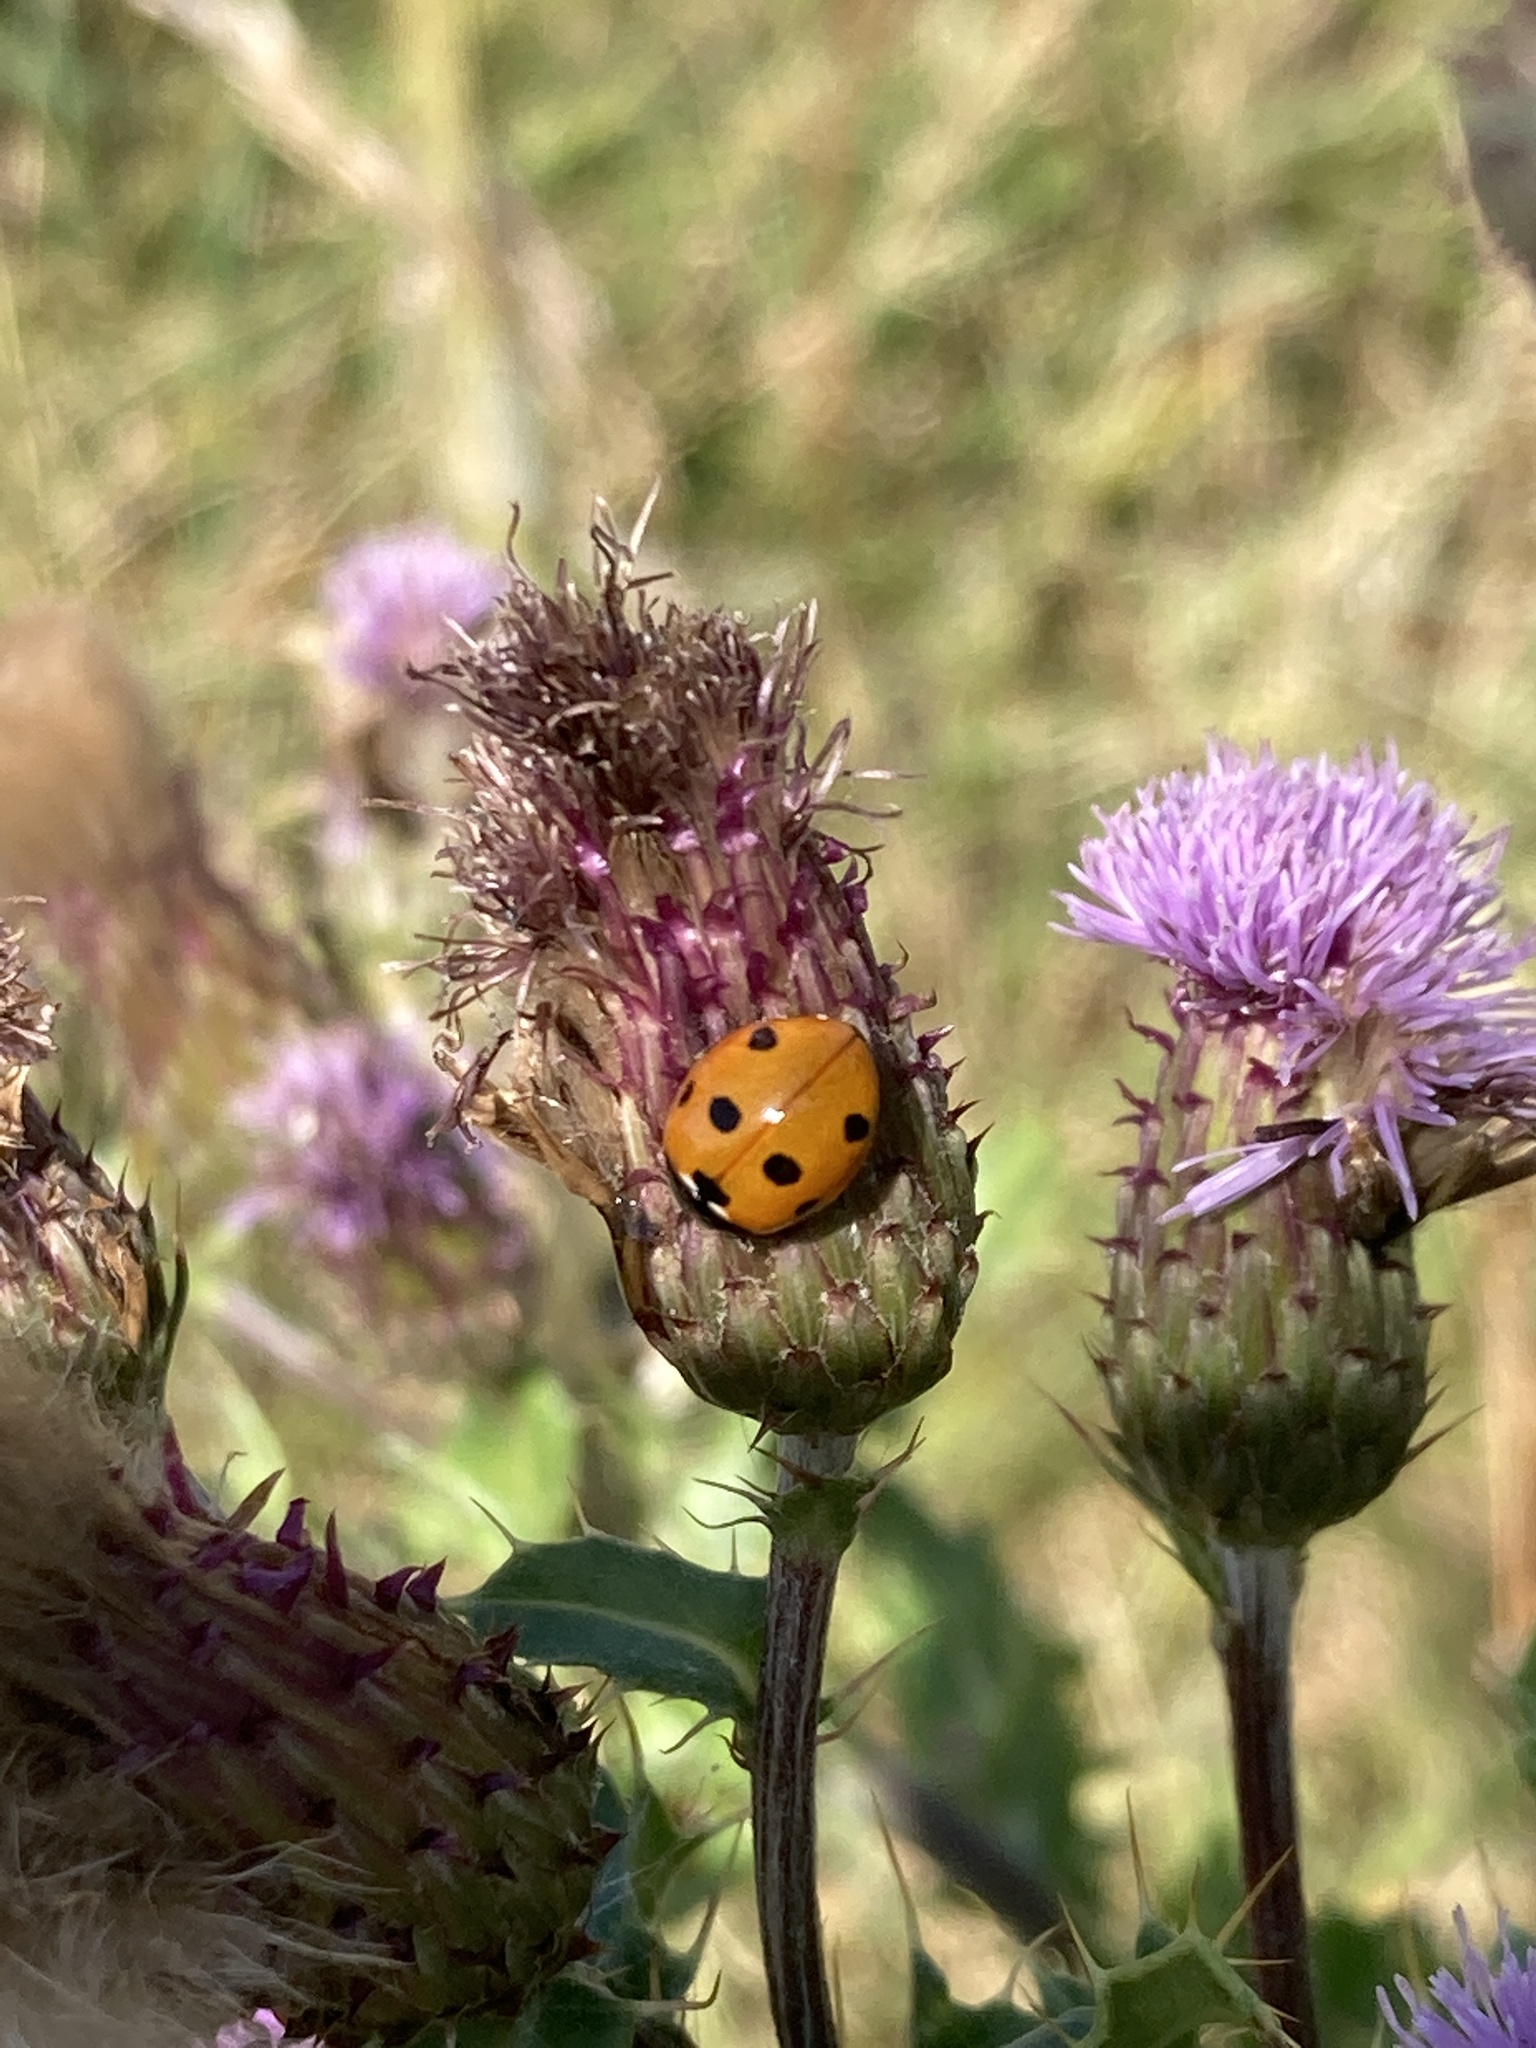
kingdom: Animalia
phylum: Arthropoda
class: Insecta
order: Coleoptera
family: Coccinellidae
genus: Coccinella
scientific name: Coccinella septempunctata
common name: Sevenspotted lady beetle
